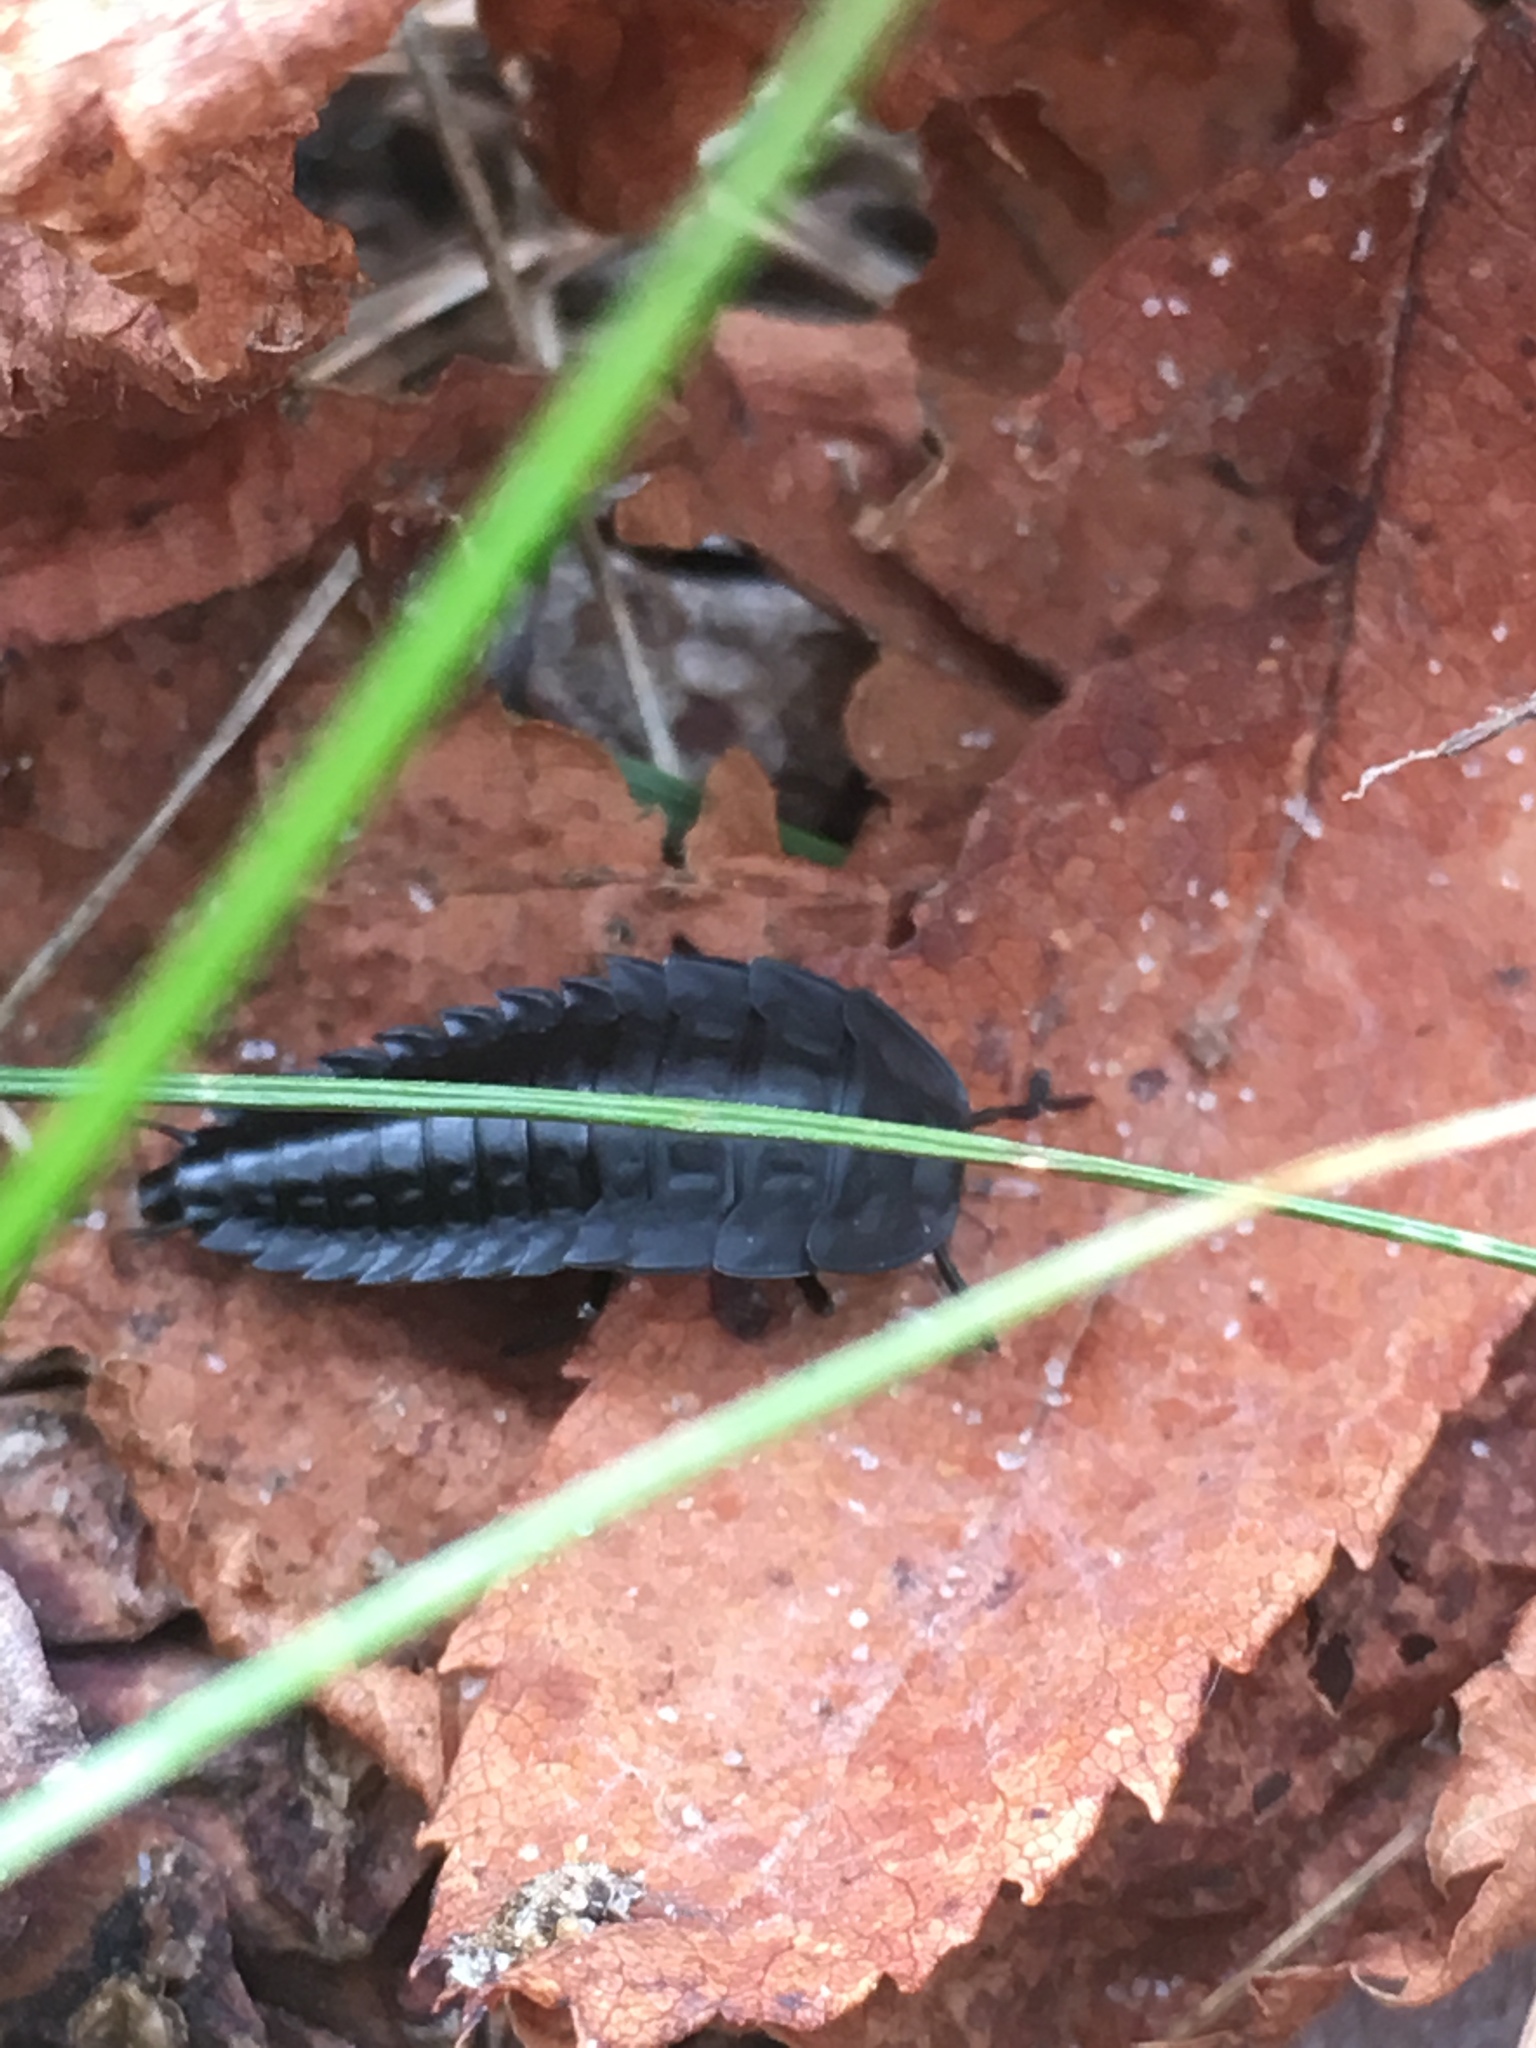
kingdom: Animalia
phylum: Arthropoda
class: Insecta
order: Coleoptera
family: Staphylinidae
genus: Silpha
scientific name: Silpha carinata
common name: Silphid beetle
